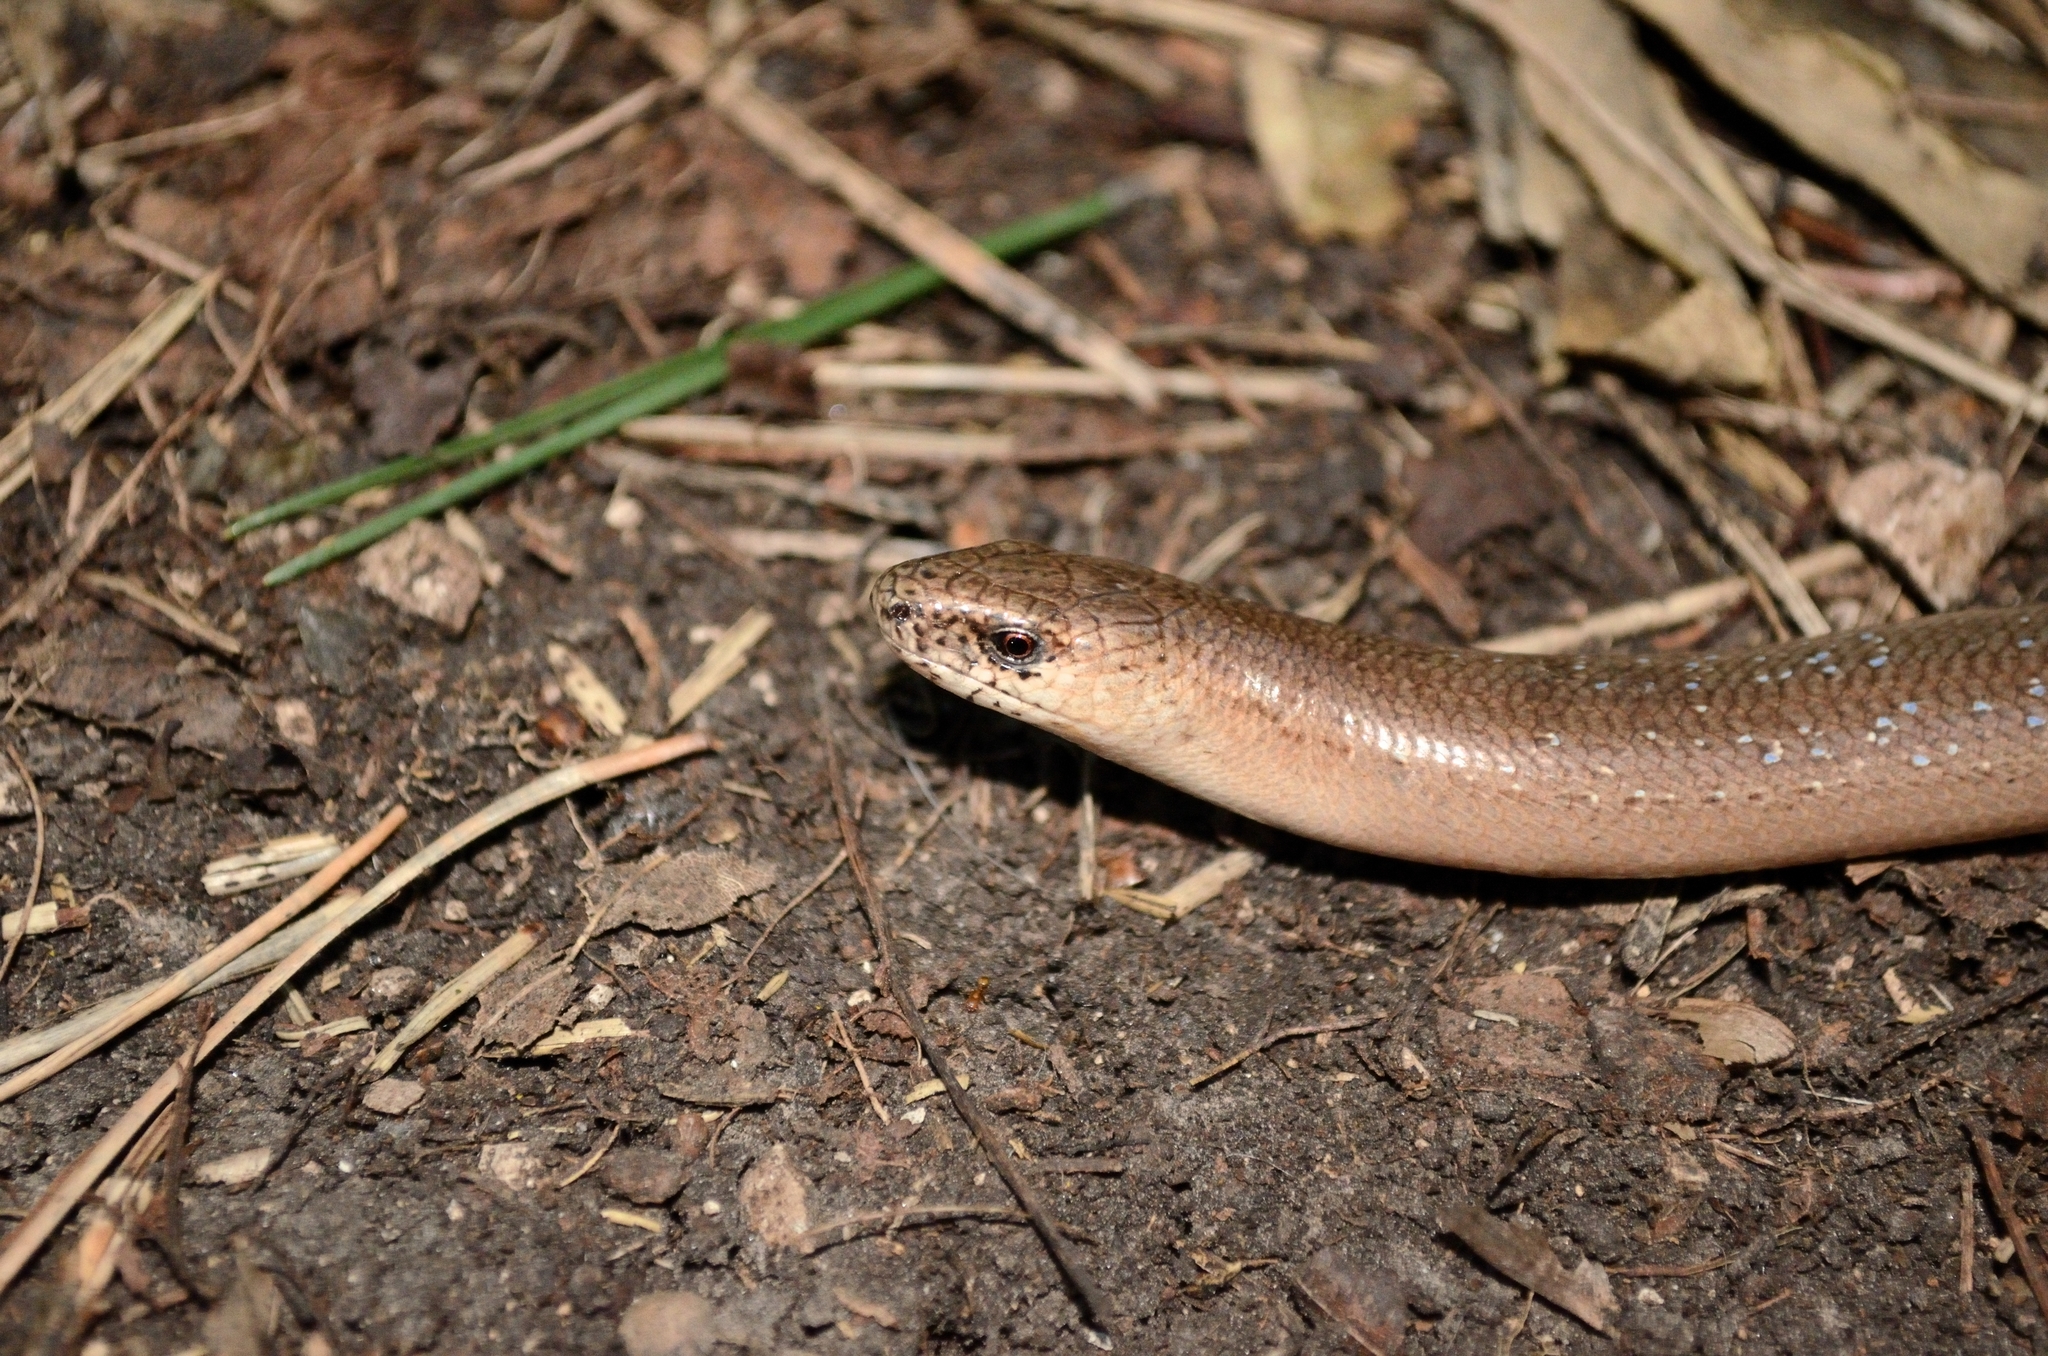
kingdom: Animalia
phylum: Chordata
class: Squamata
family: Anguidae
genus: Anguis
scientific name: Anguis fragilis
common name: Slow worm
